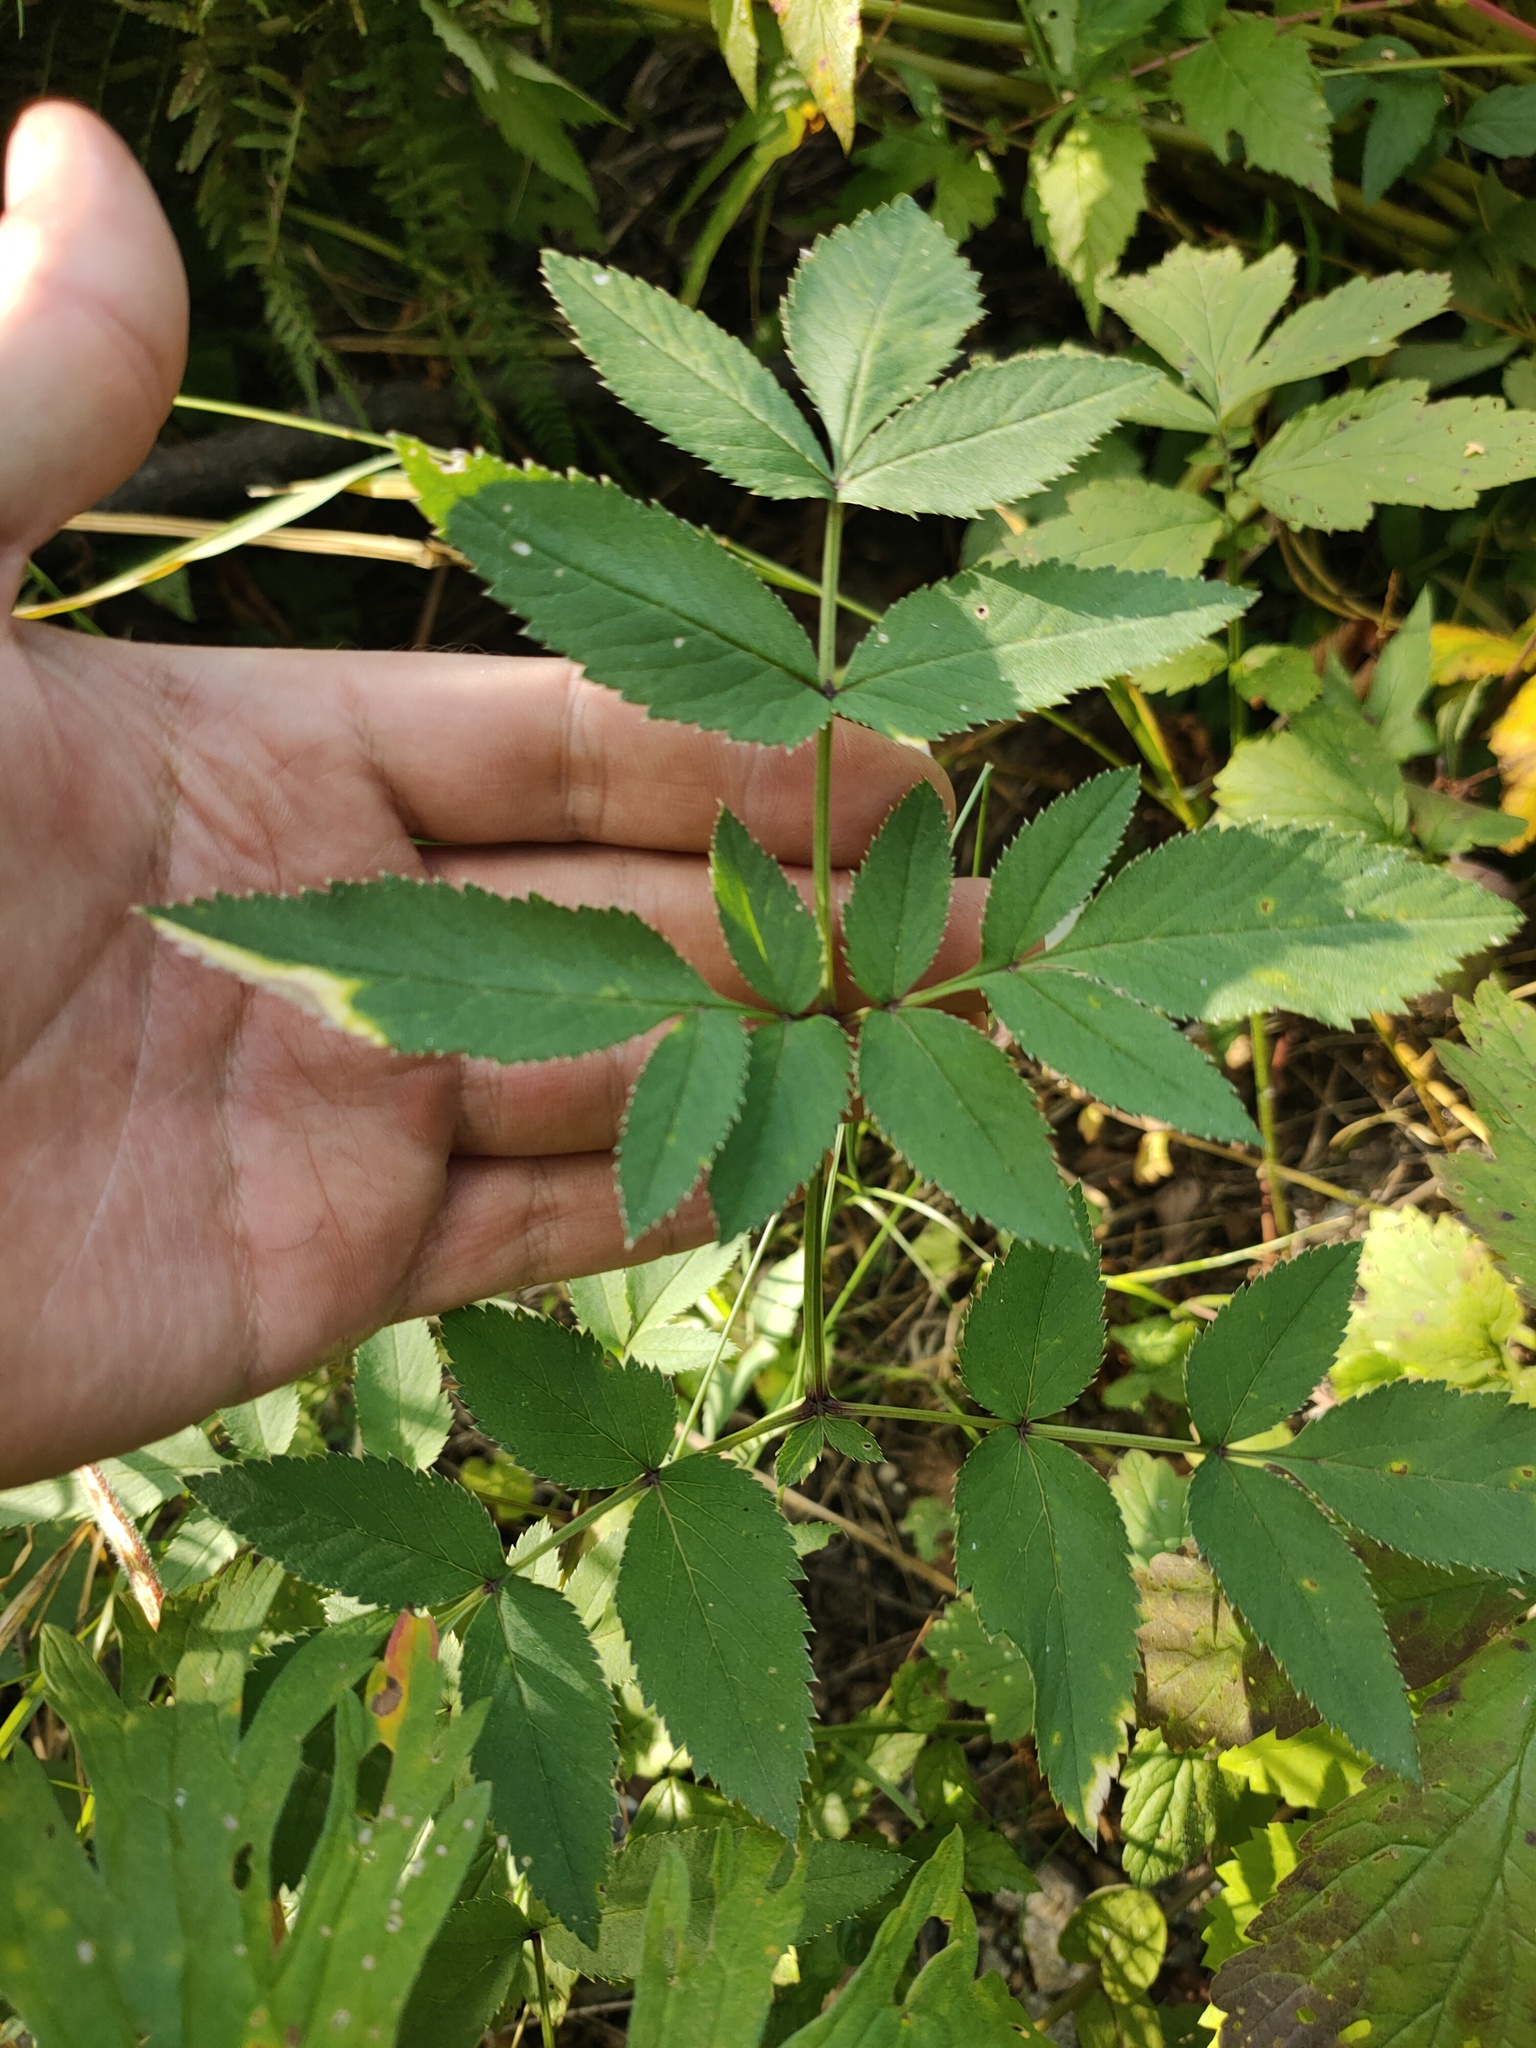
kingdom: Plantae
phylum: Tracheophyta
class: Magnoliopsida
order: Apiales
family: Apiaceae
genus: Angelica
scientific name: Angelica sylvestris
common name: Wild angelica
